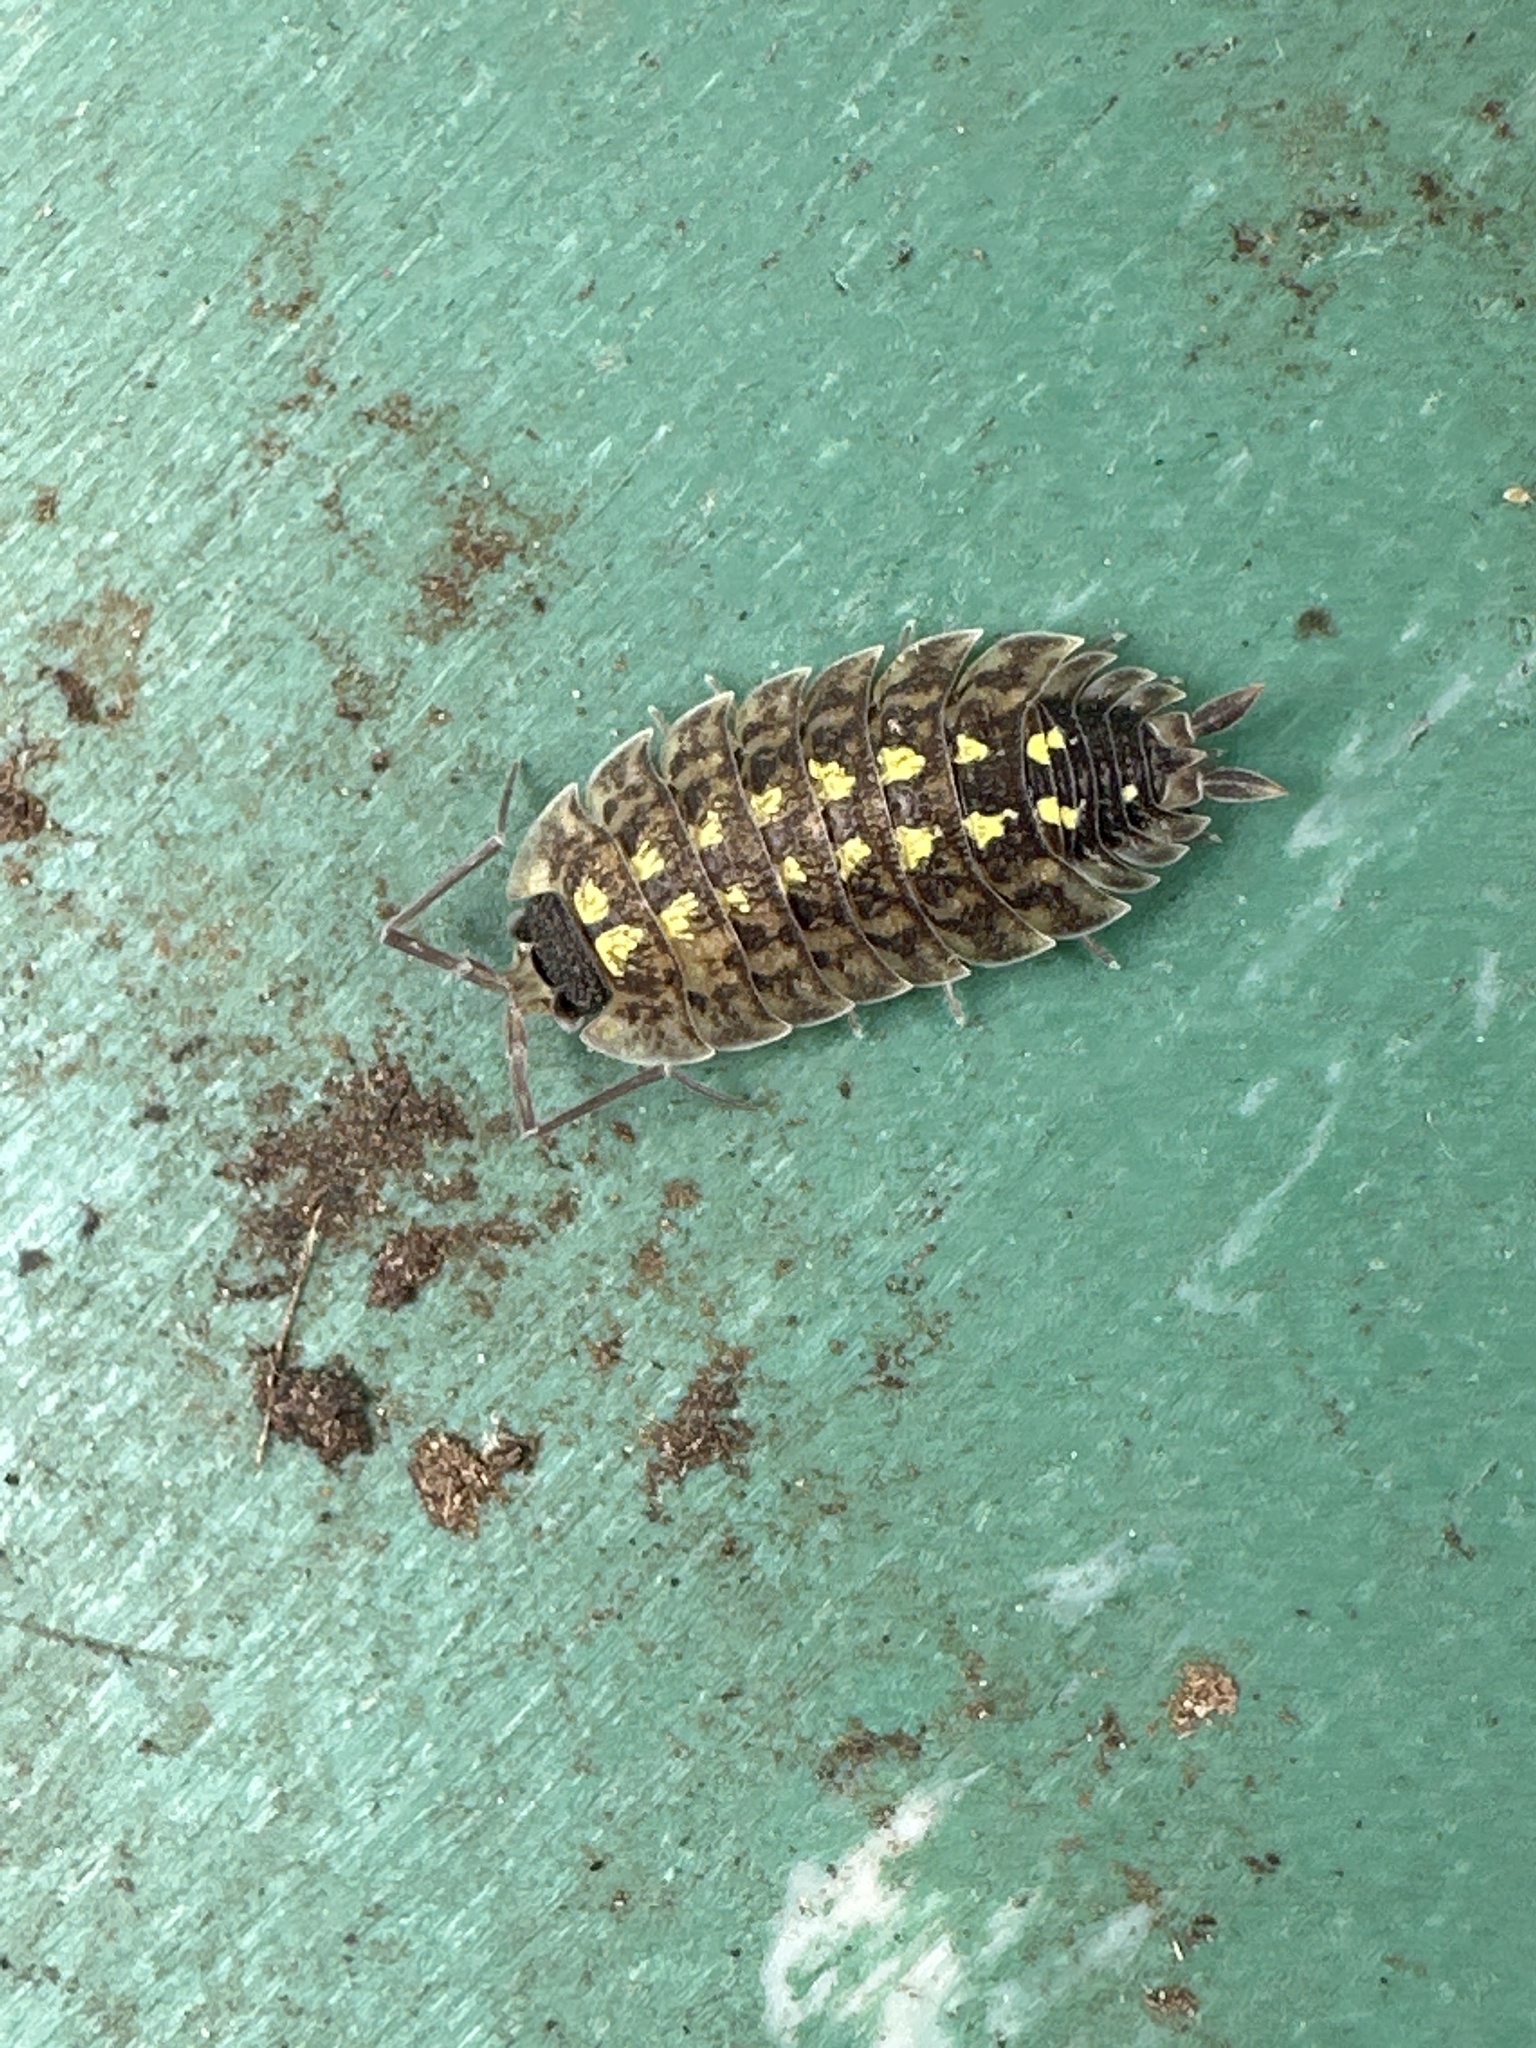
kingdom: Animalia
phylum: Arthropoda
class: Malacostraca
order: Isopoda
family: Porcellionidae
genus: Porcellio
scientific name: Porcellio spinicornis
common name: Painted woodlouse
